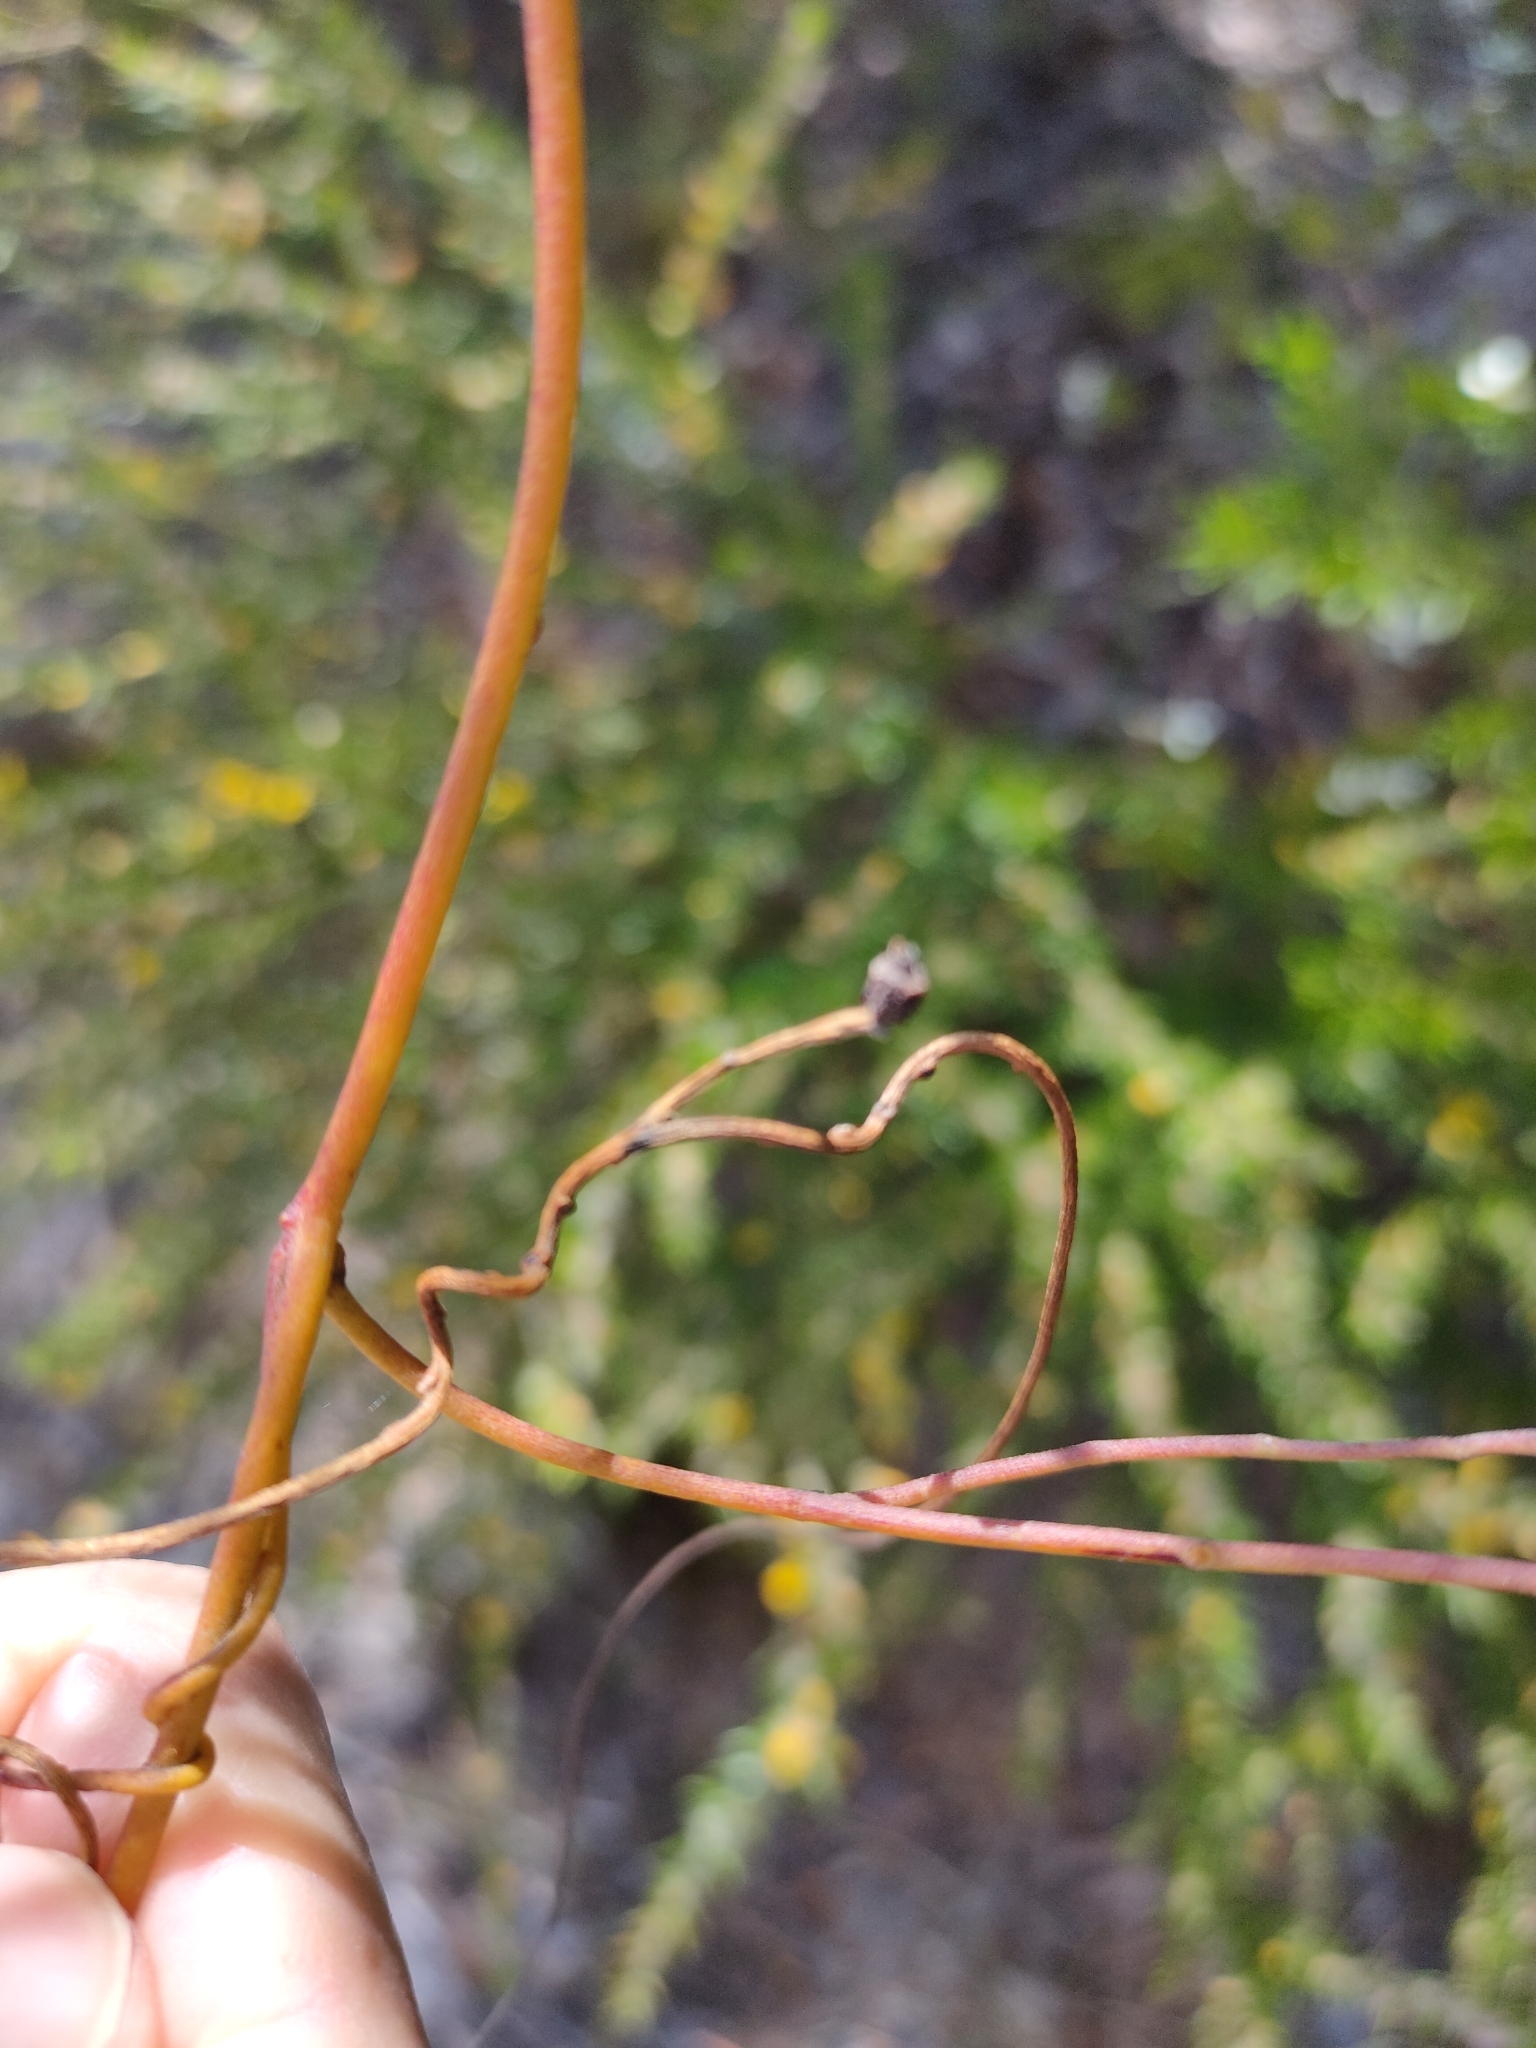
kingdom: Plantae
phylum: Tracheophyta
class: Magnoliopsida
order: Laurales
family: Lauraceae
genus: Cassytha
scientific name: Cassytha pubescens
